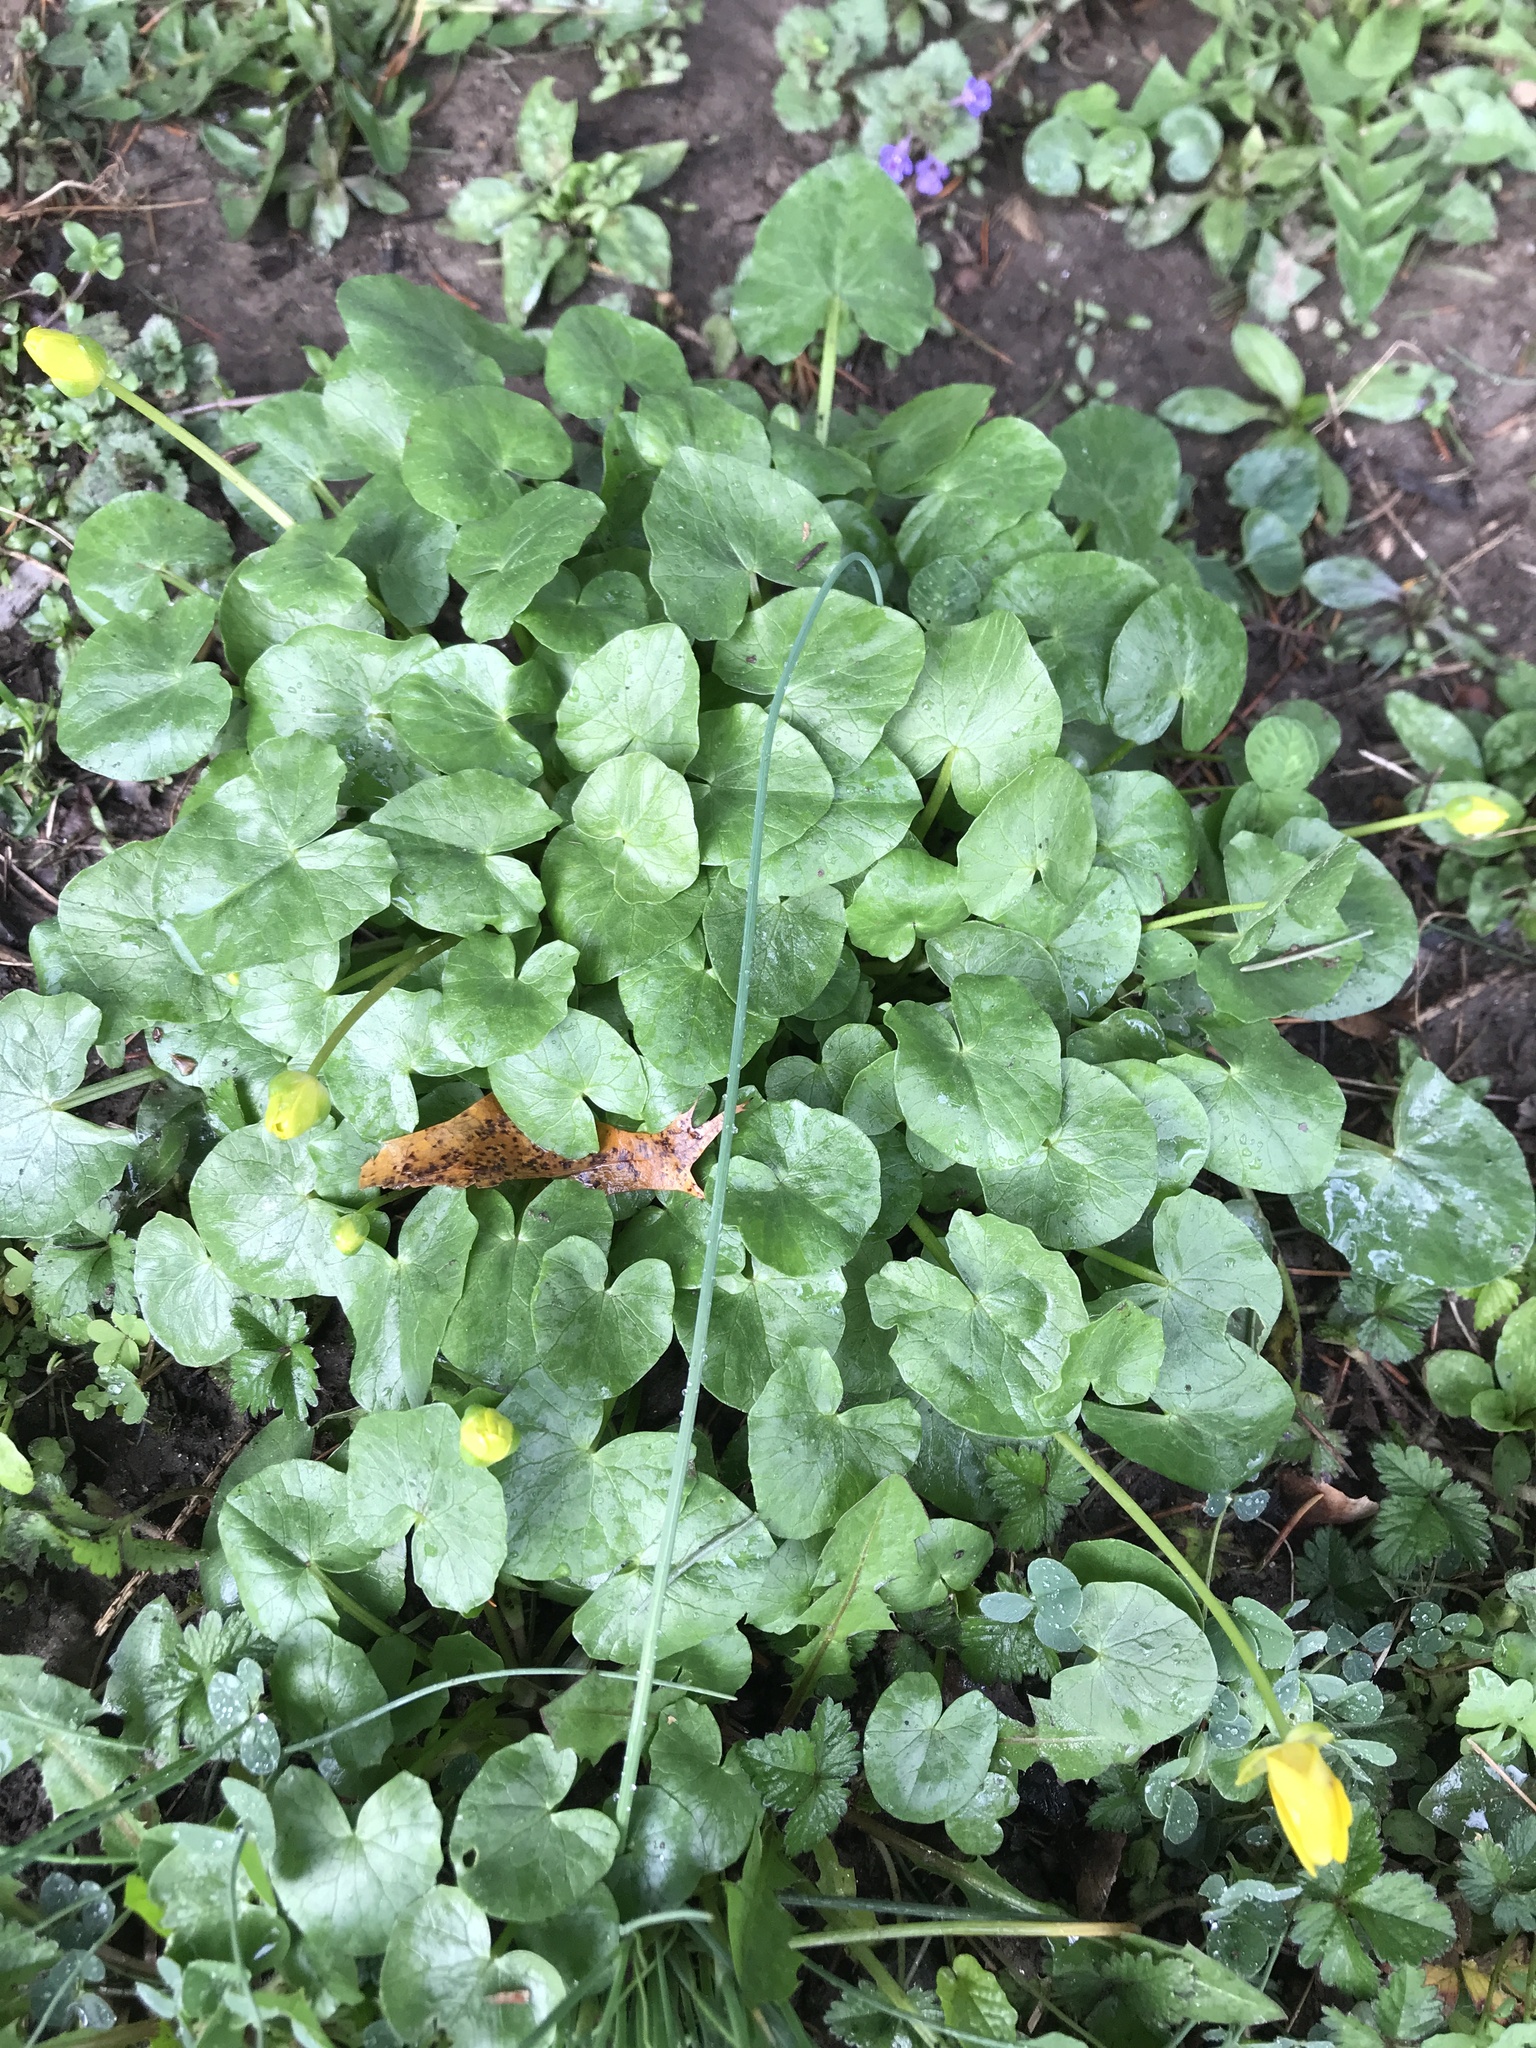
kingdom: Plantae
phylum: Tracheophyta
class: Magnoliopsida
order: Ranunculales
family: Ranunculaceae
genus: Ficaria
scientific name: Ficaria verna
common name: Lesser celandine
